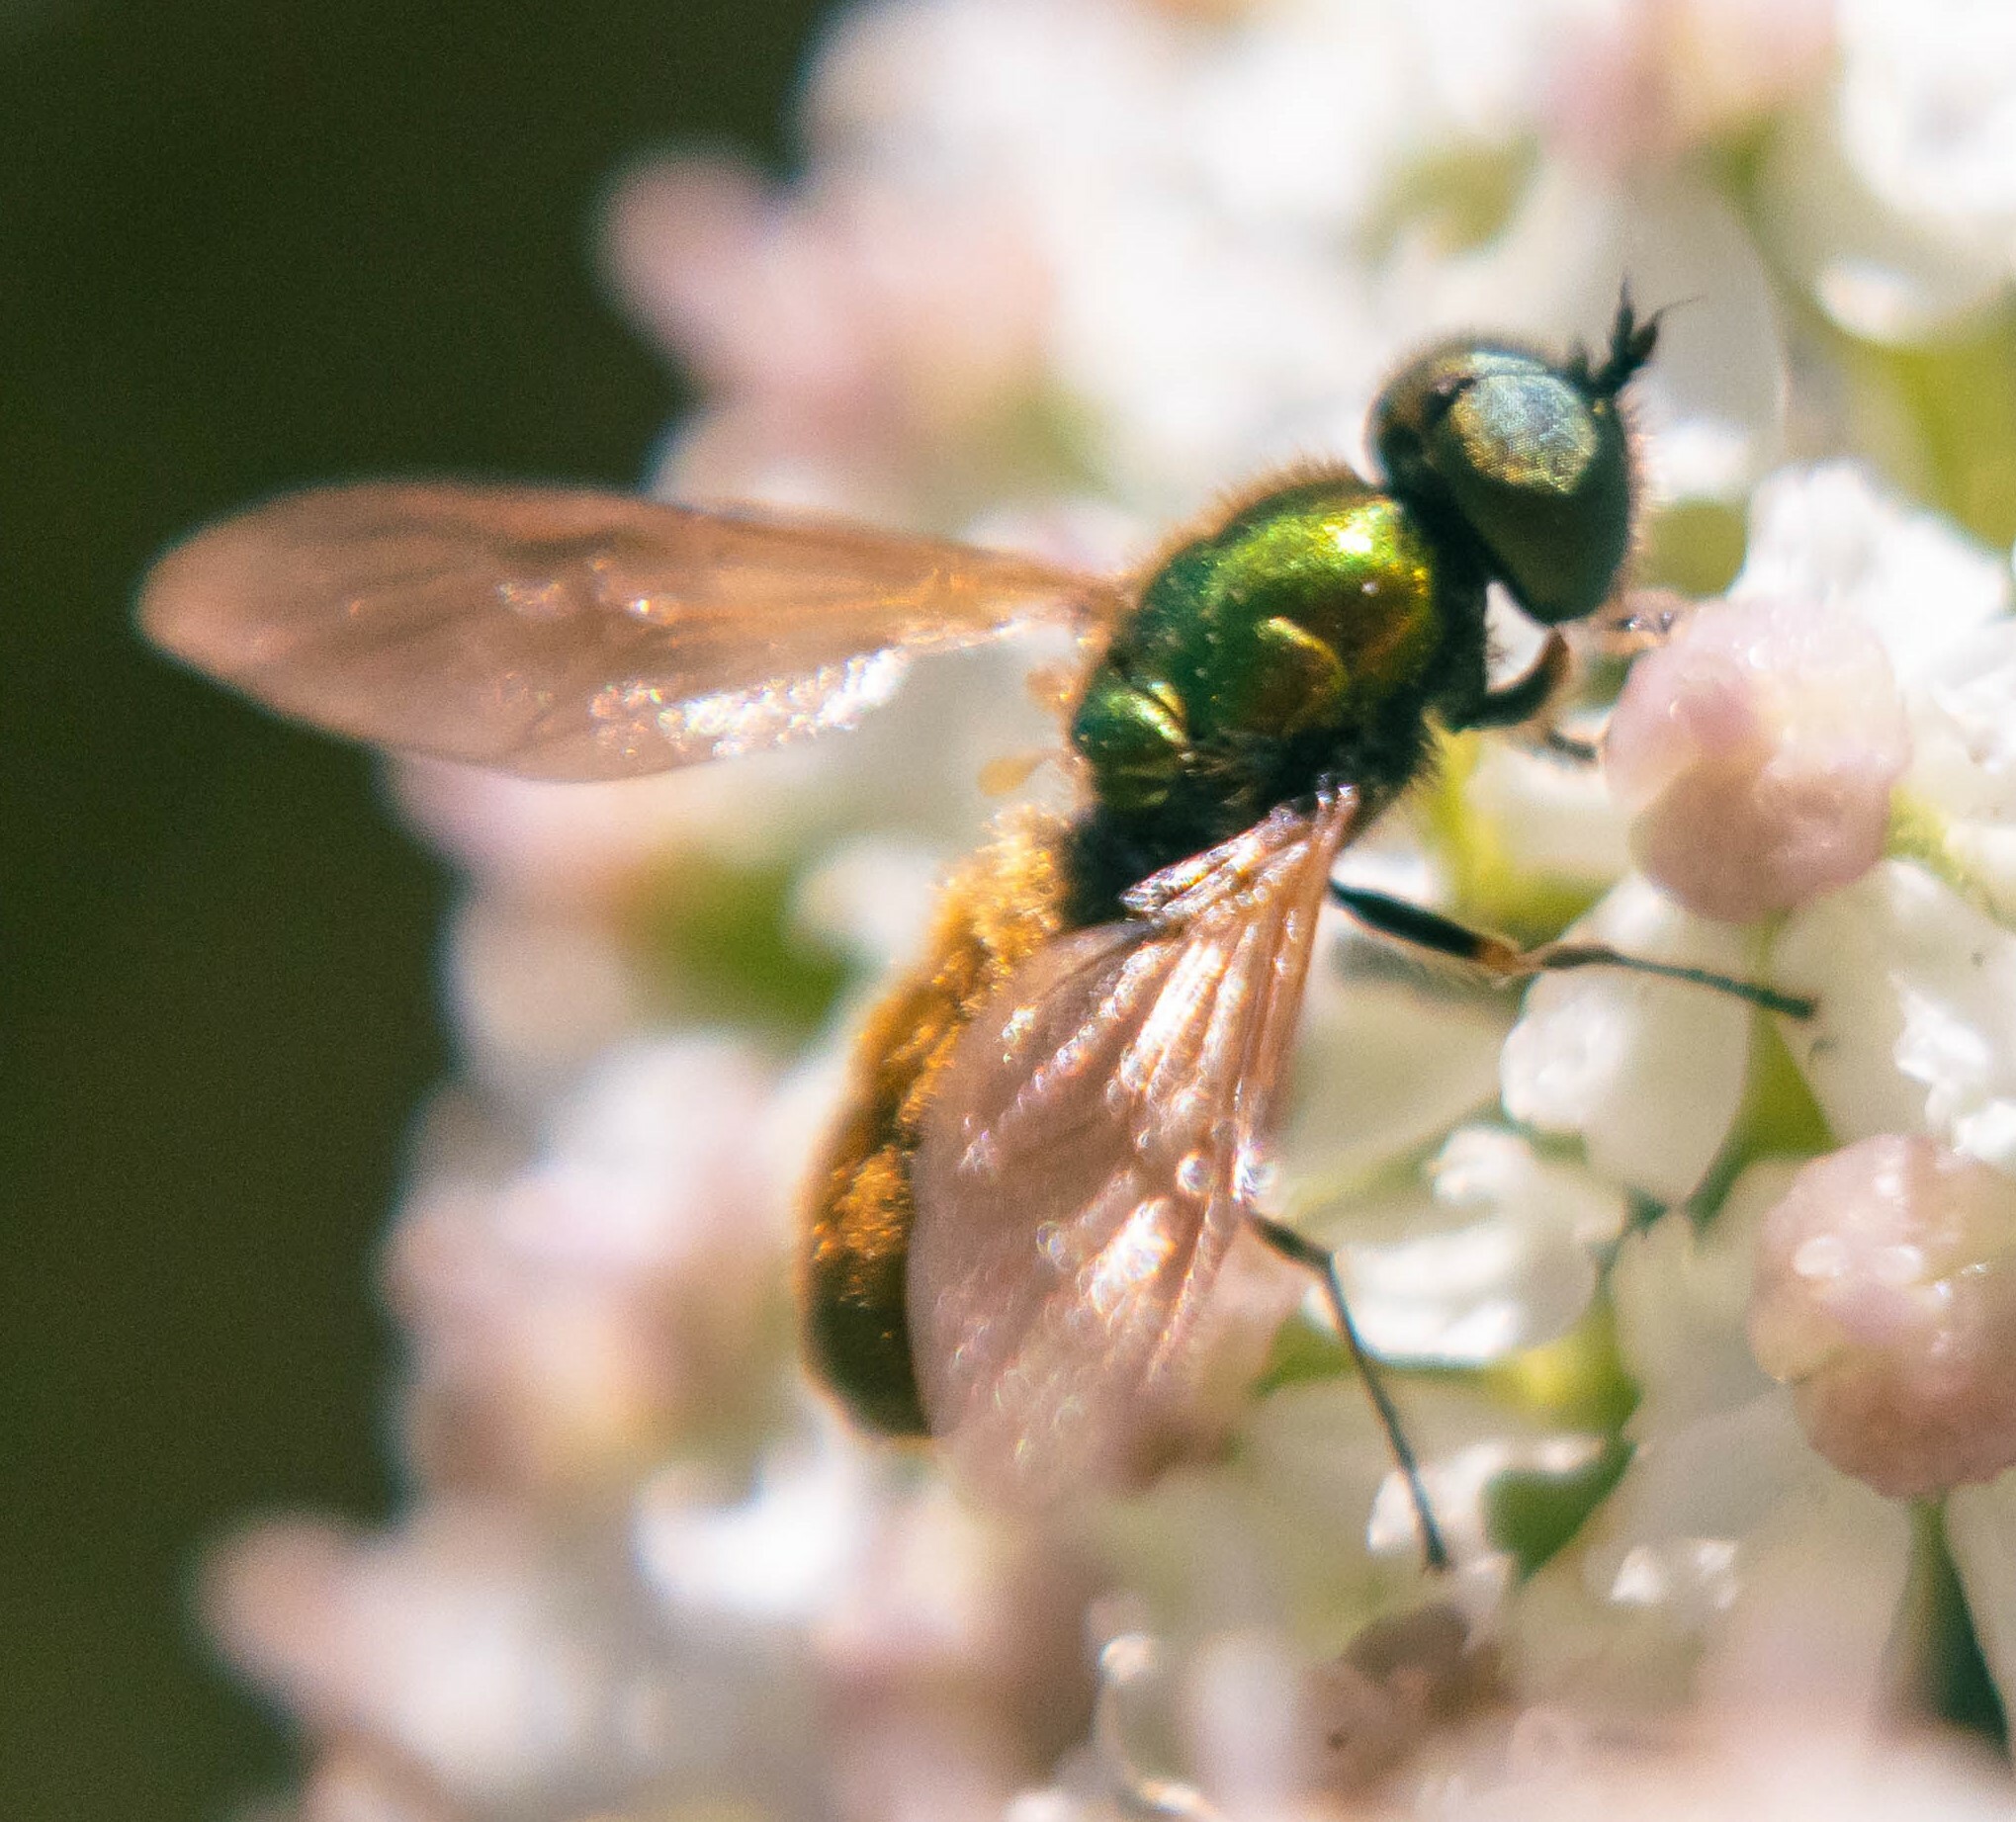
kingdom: Animalia
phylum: Arthropoda
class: Insecta
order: Diptera
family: Stratiomyidae
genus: Chloromyia
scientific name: Chloromyia formosa
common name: Soldier fly
